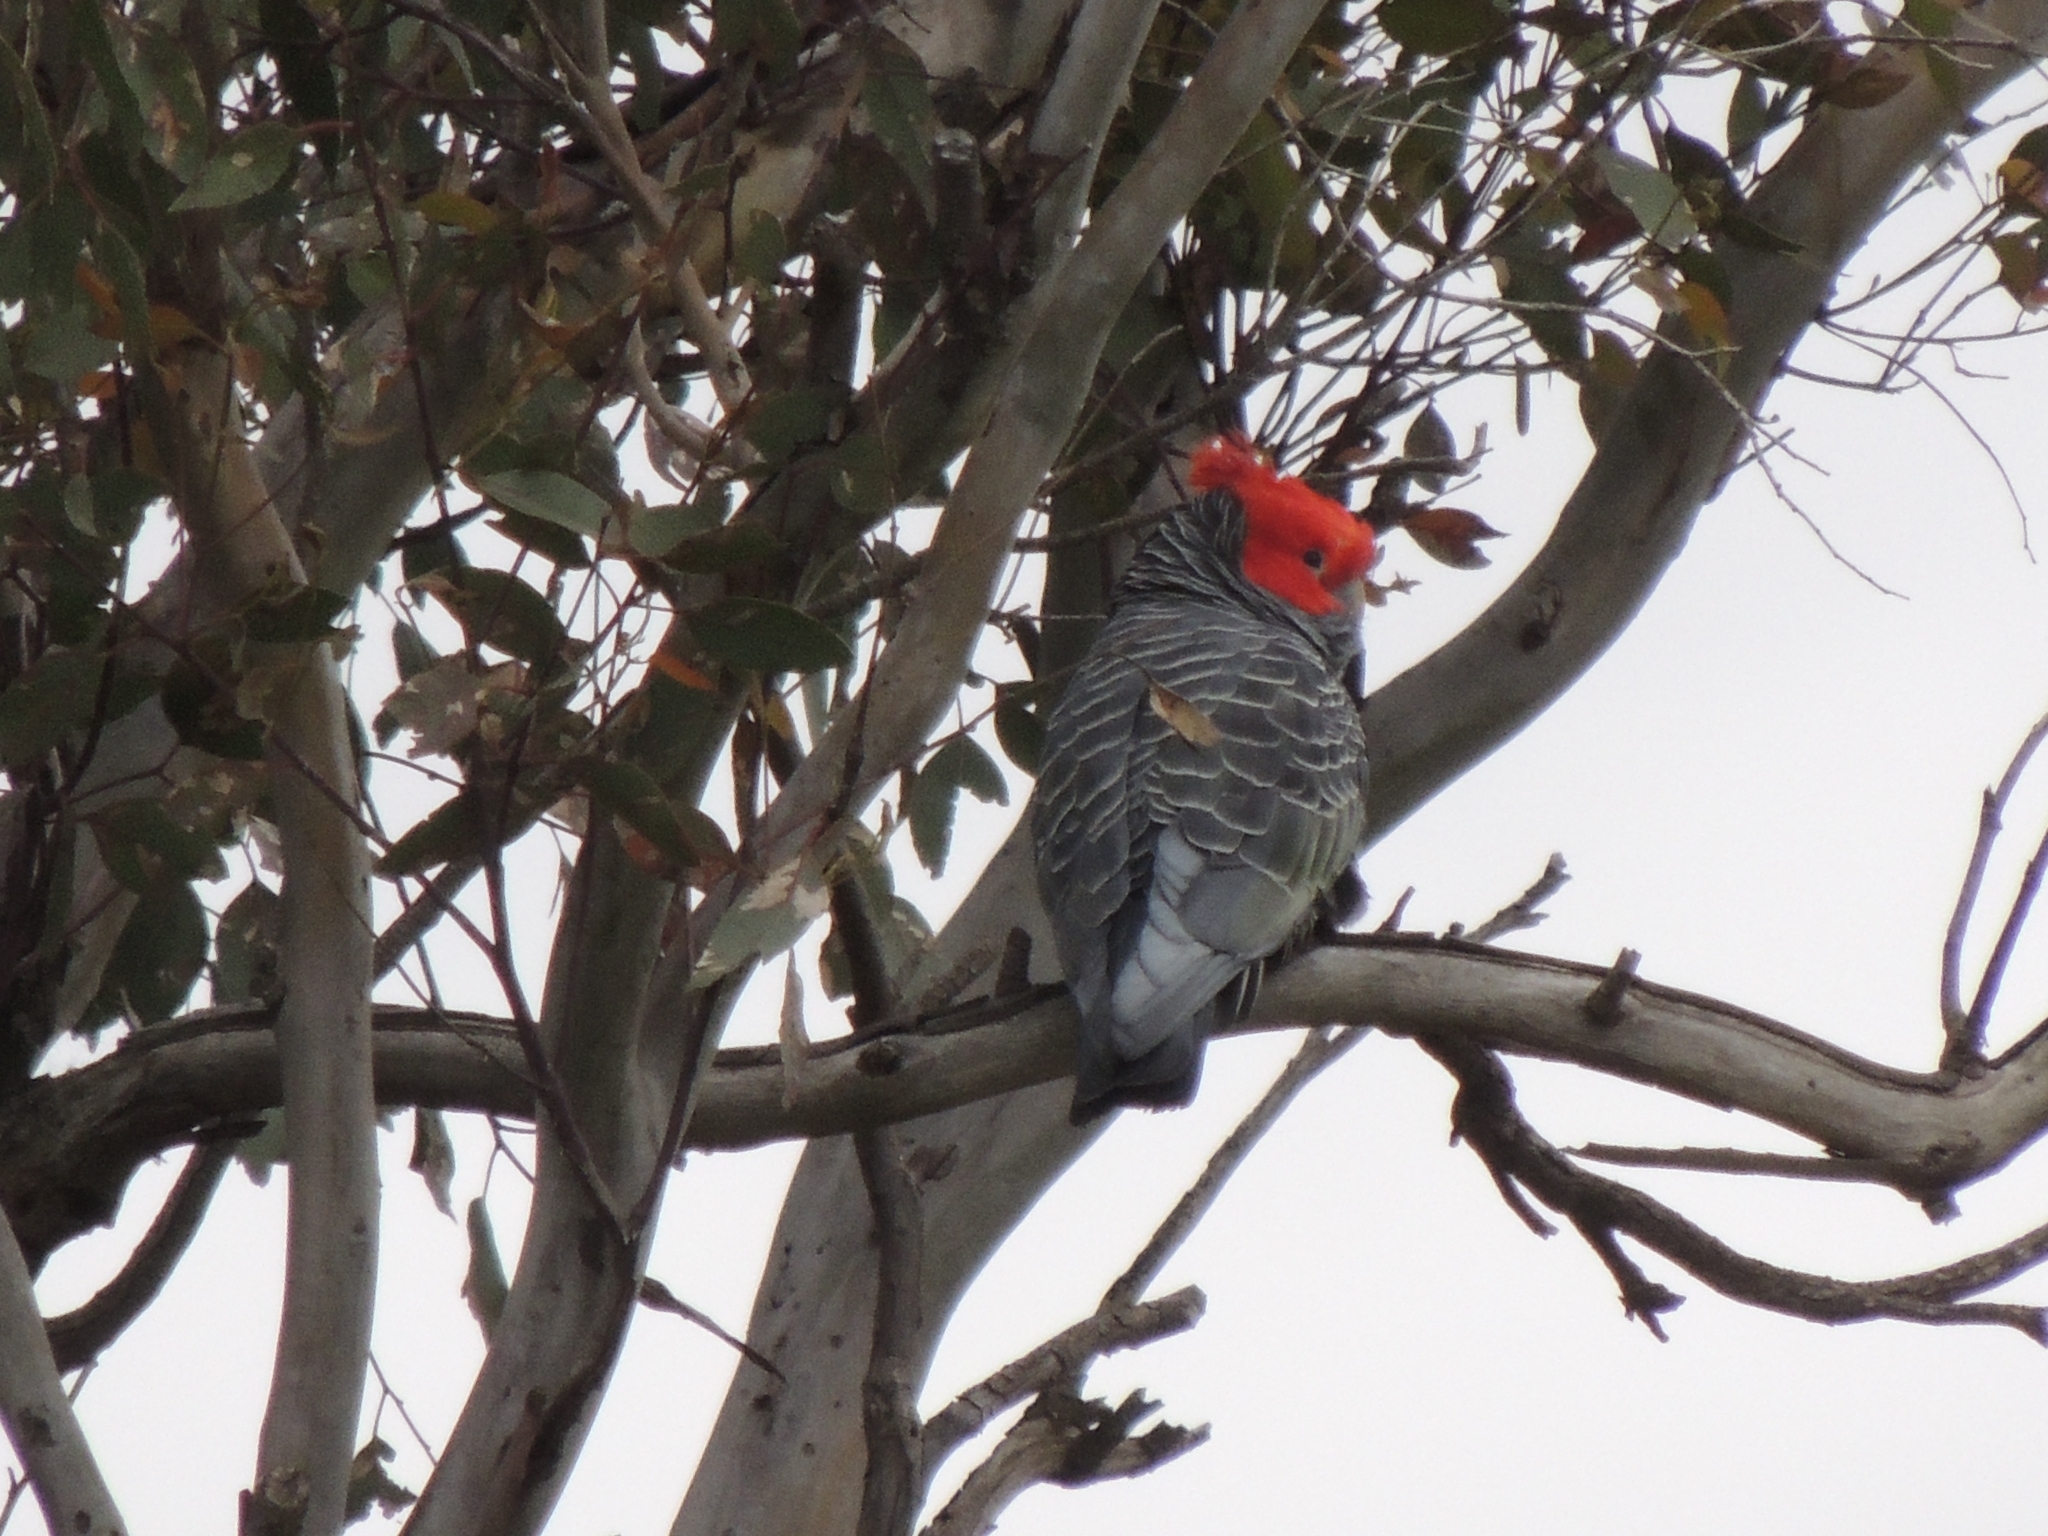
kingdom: Animalia
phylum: Chordata
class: Aves
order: Psittaciformes
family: Psittacidae
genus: Callocephalon
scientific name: Callocephalon fimbriatum
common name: Gang-gang cockatoo
